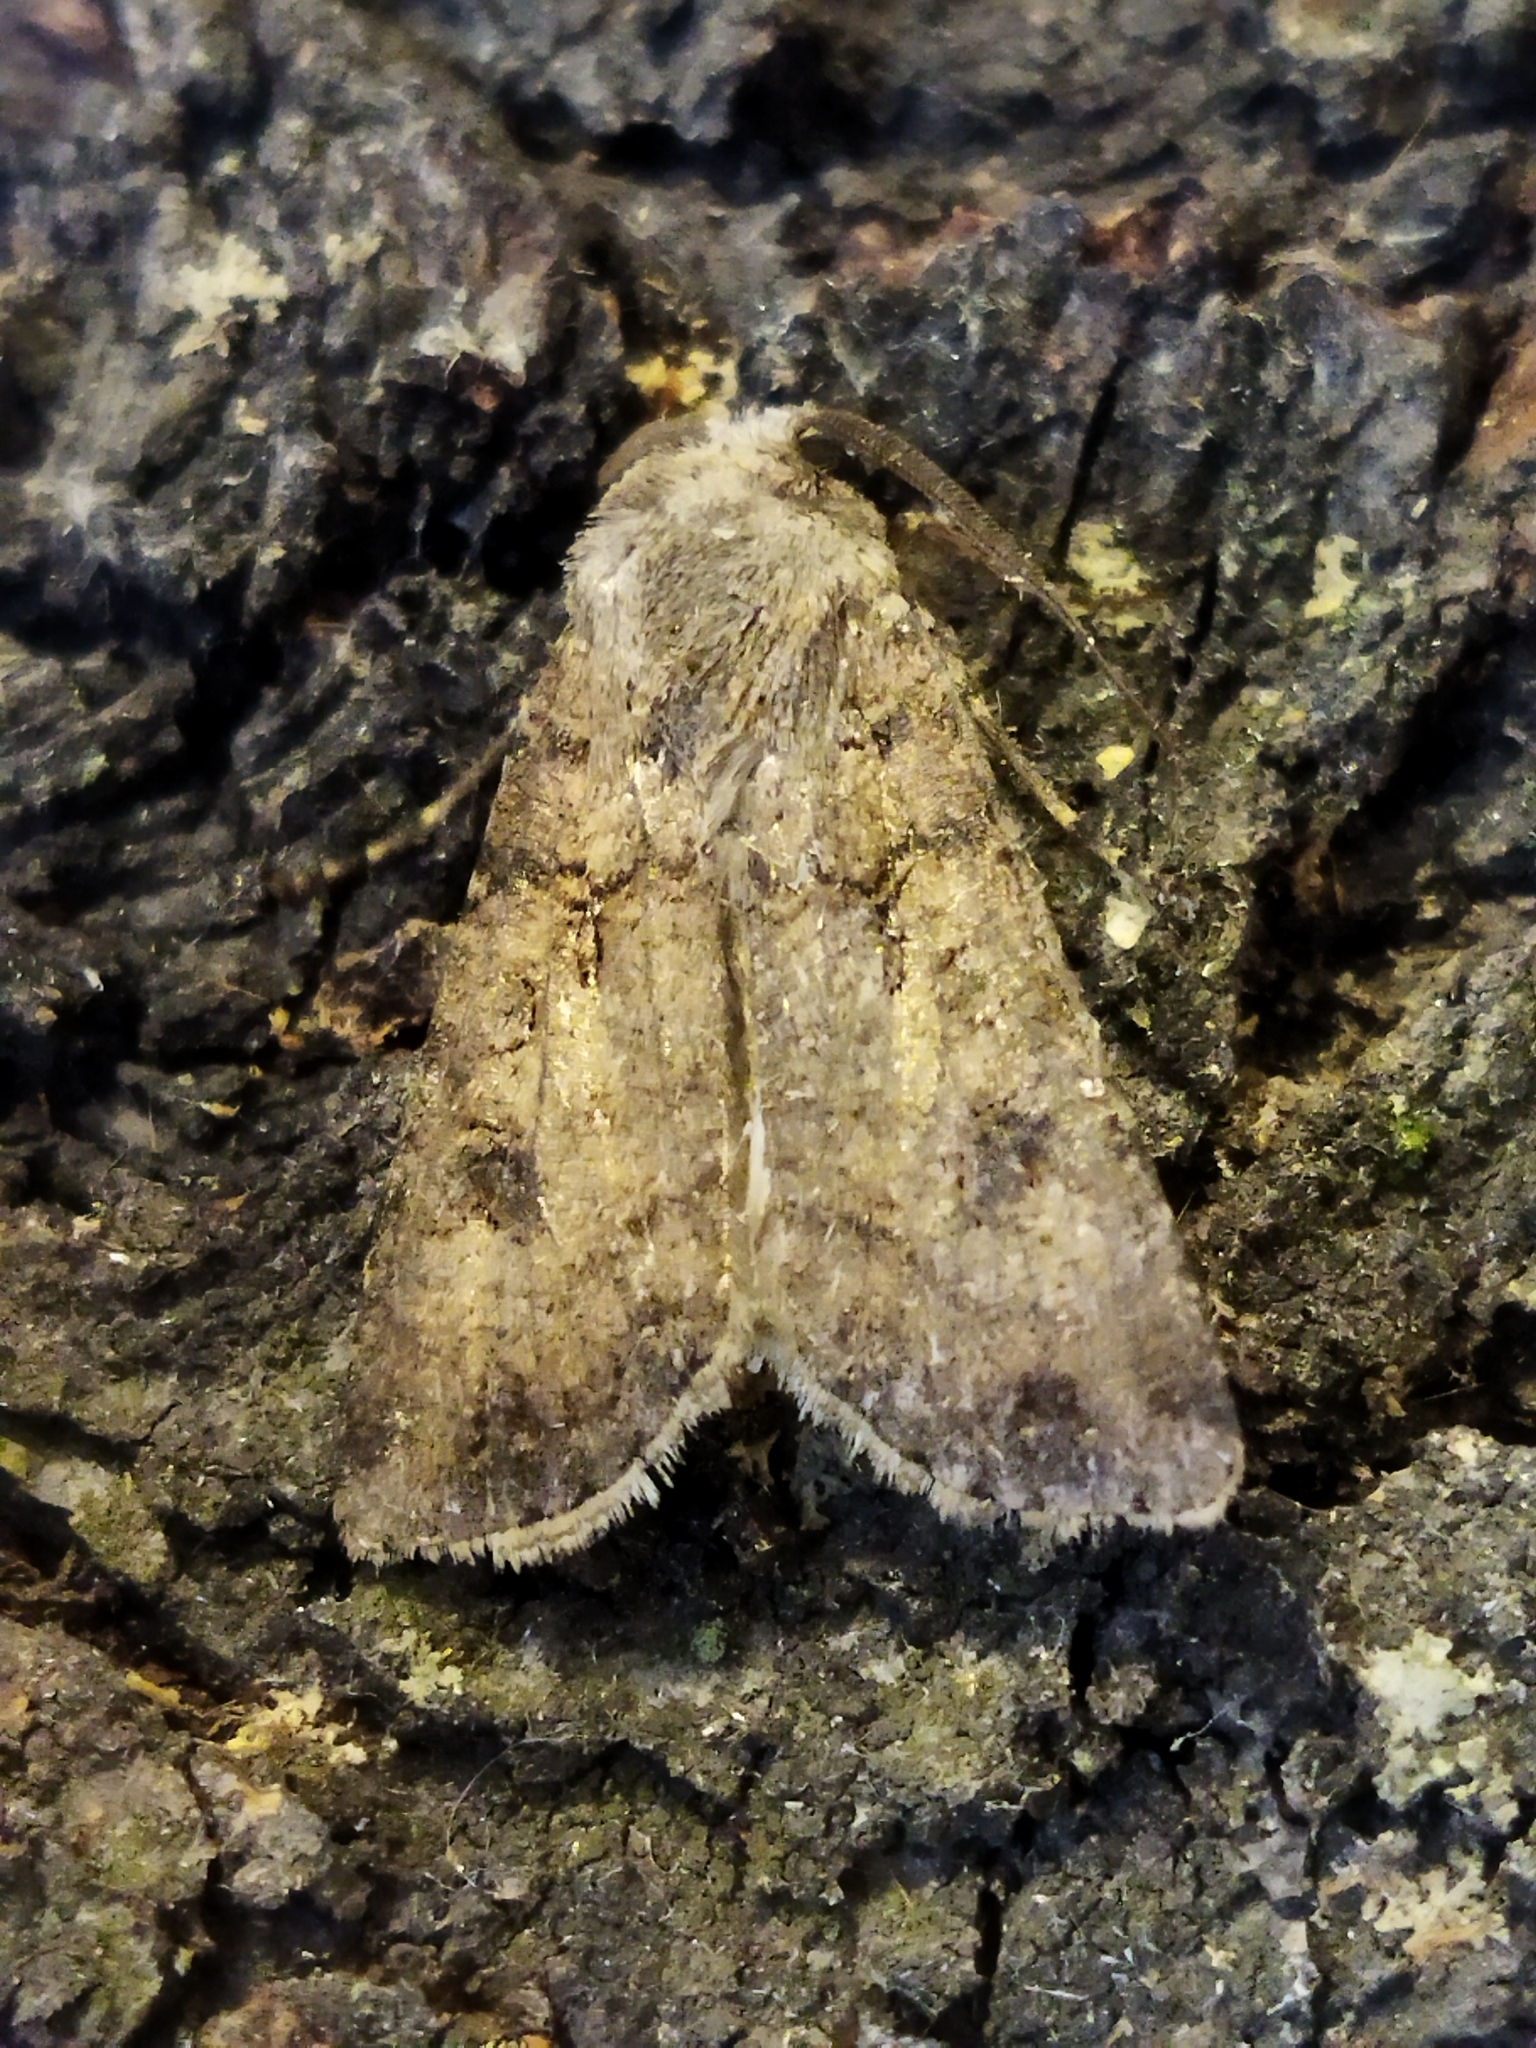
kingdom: Animalia
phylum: Arthropoda
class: Insecta
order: Lepidoptera
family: Noctuidae
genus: Agrotis
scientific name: Agrotis segetum
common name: Turnip moth
